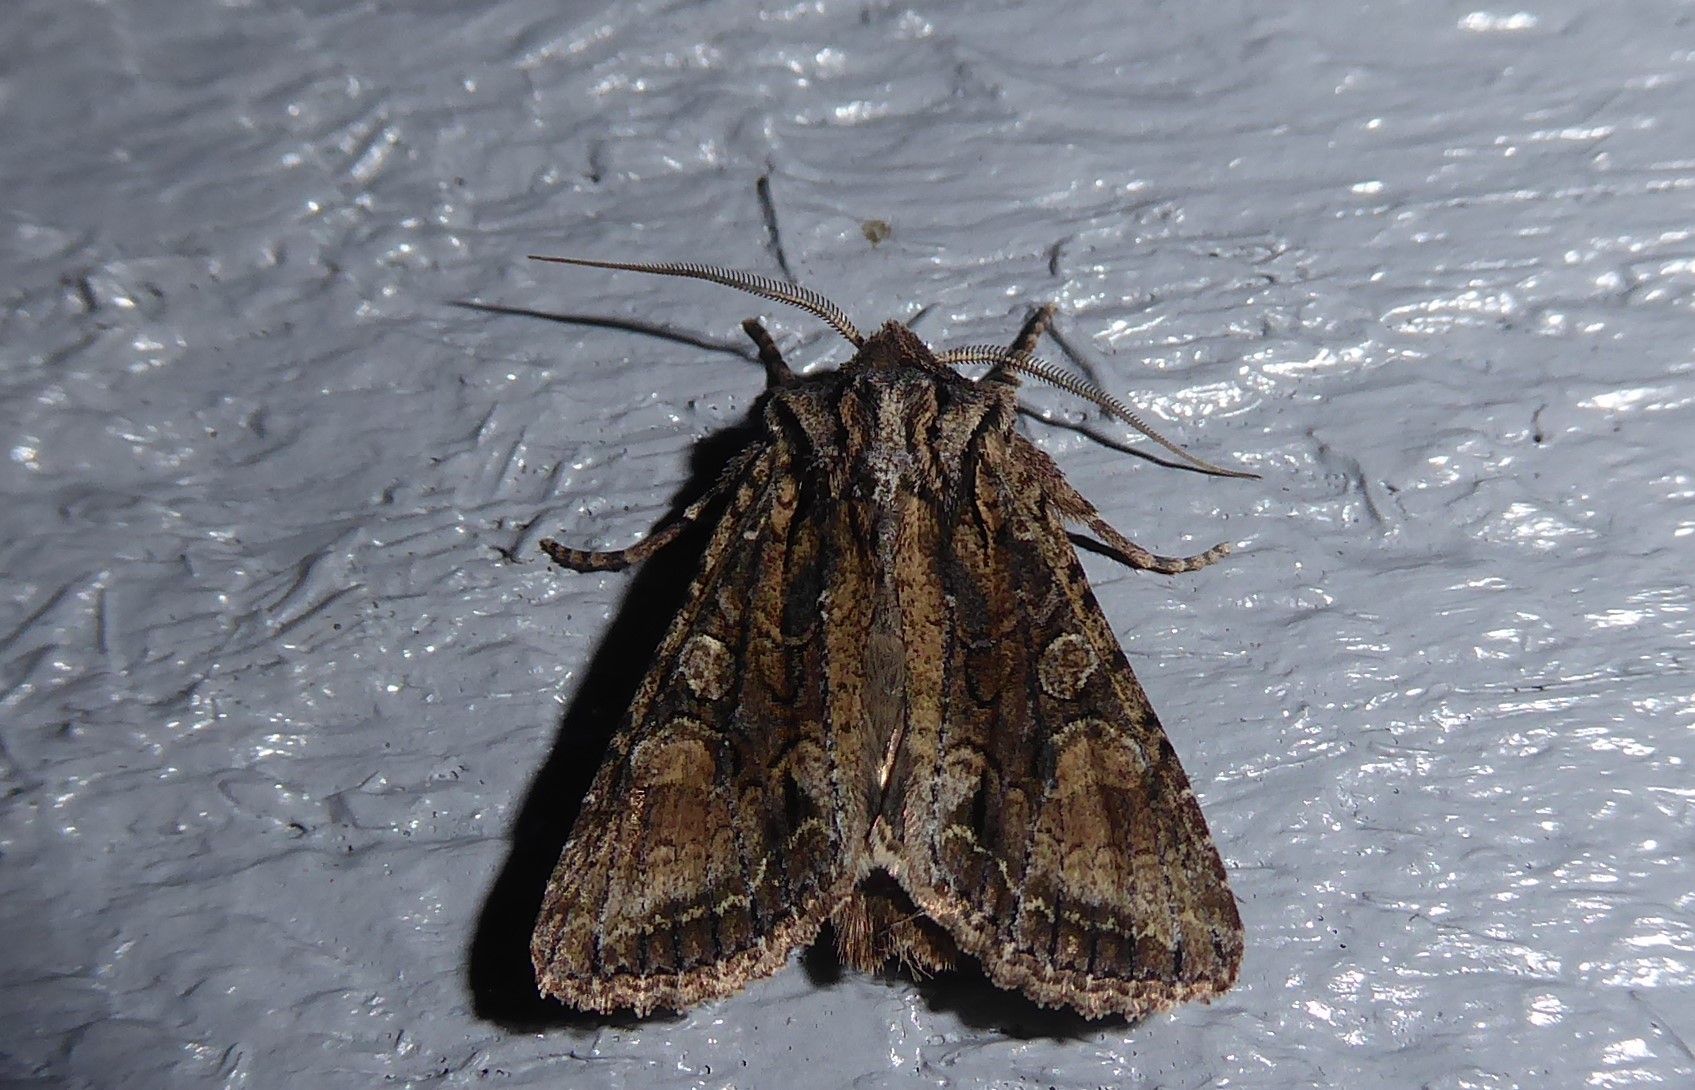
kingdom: Animalia
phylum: Arthropoda
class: Insecta
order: Lepidoptera
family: Noctuidae
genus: Ichneutica
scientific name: Ichneutica mutans
